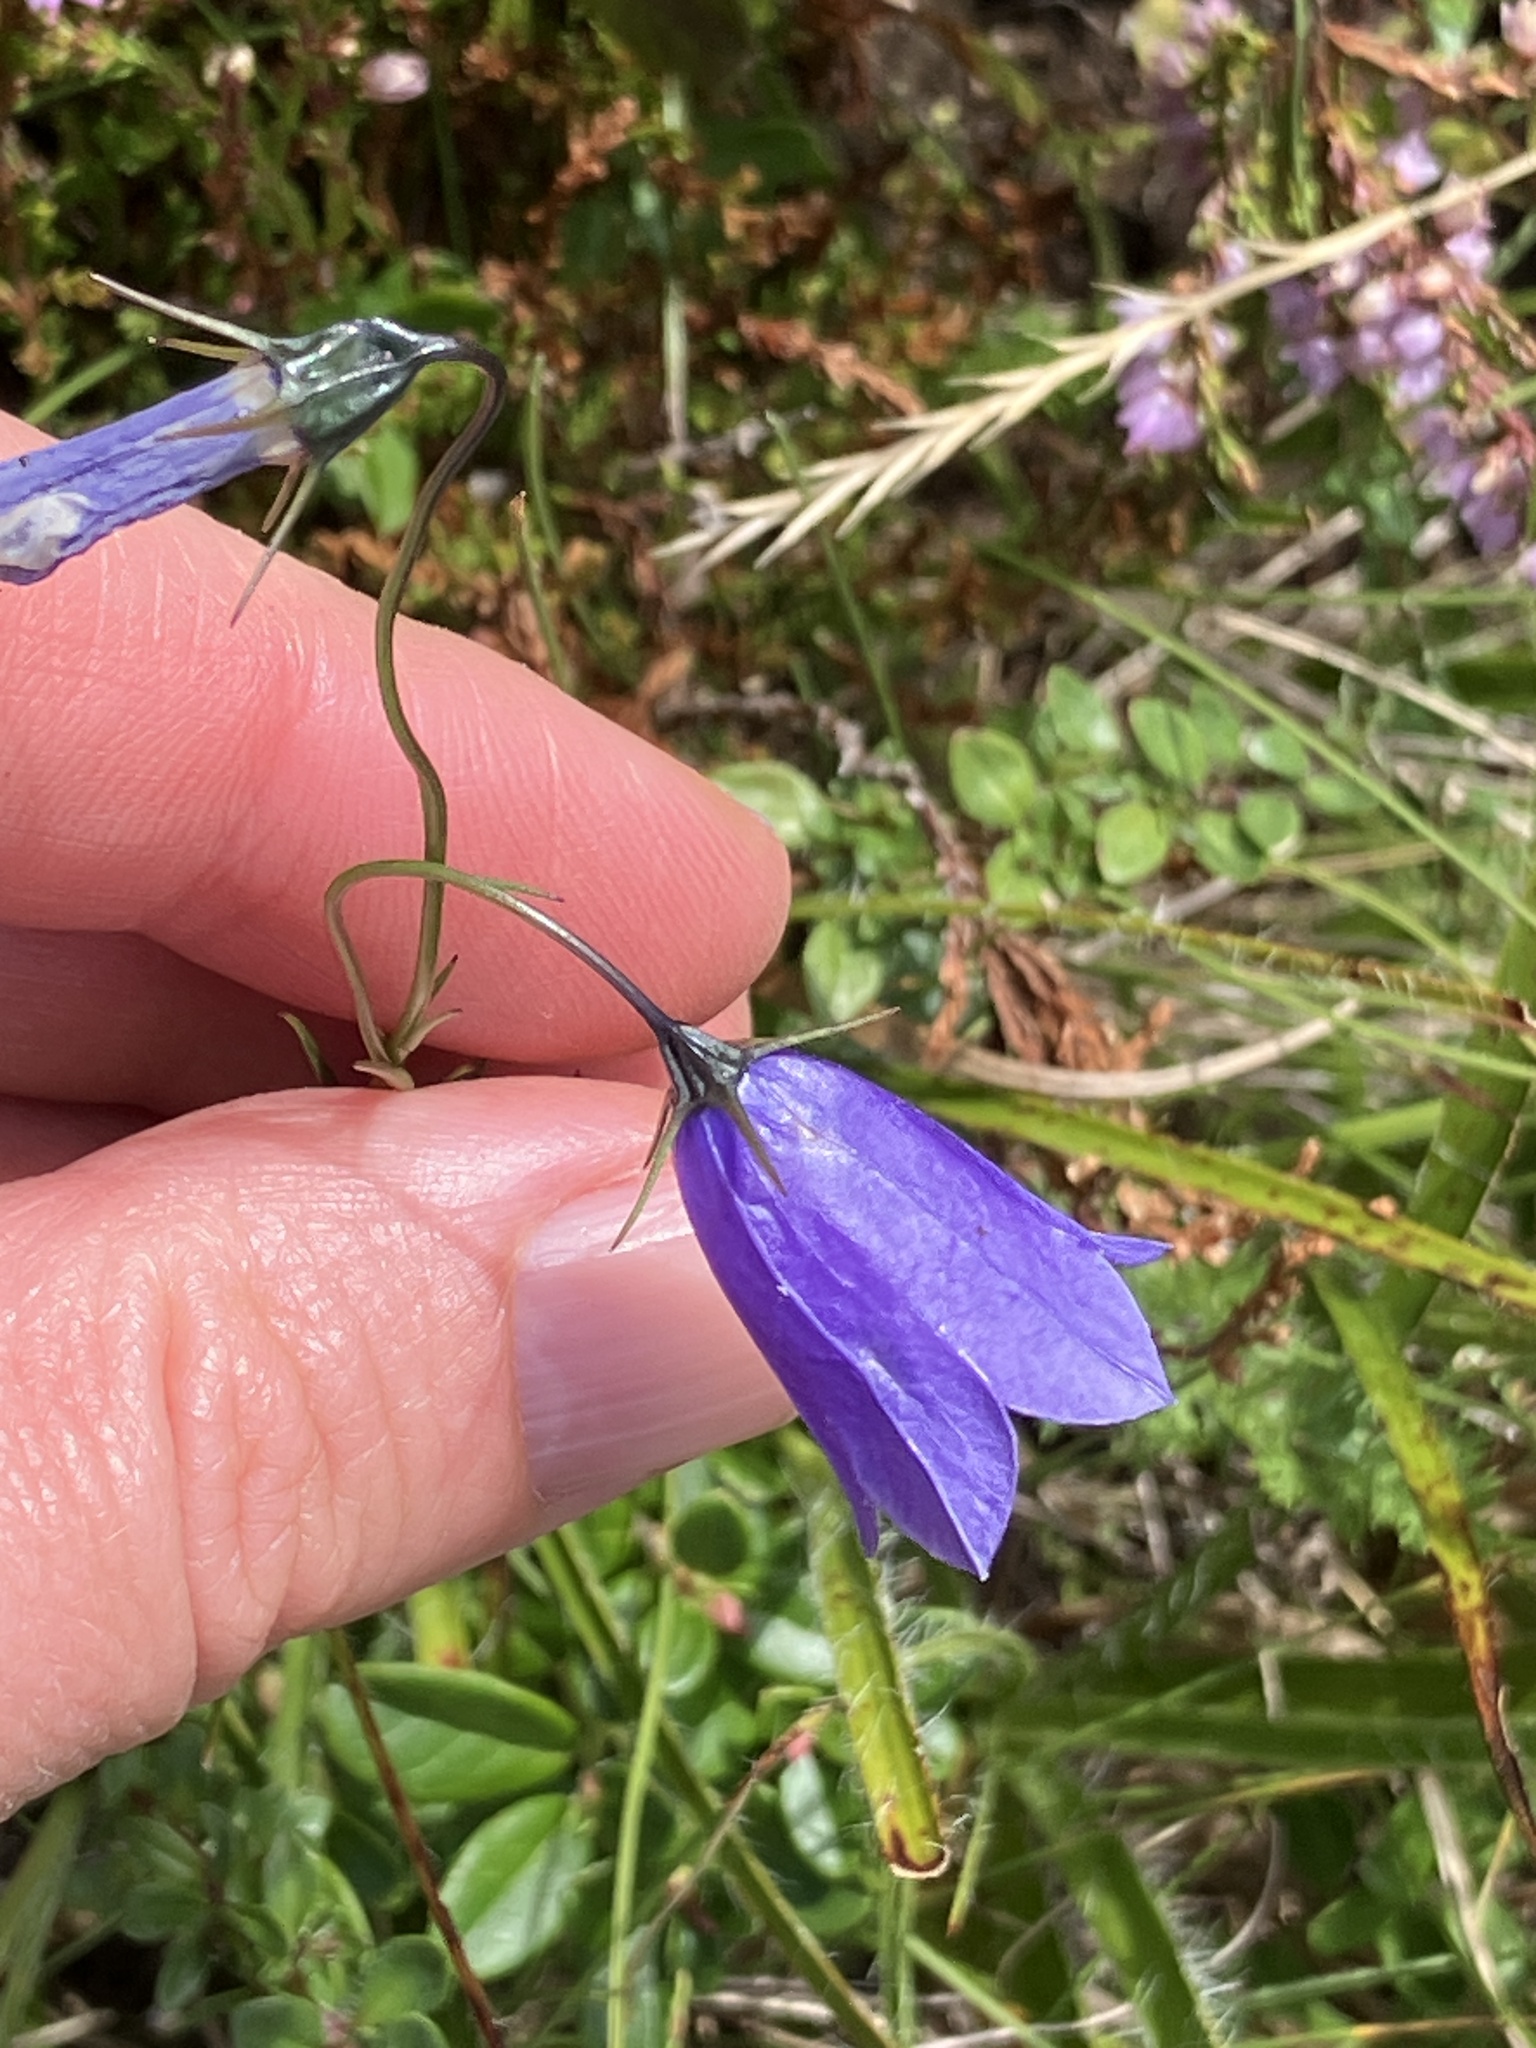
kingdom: Plantae
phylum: Tracheophyta
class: Magnoliopsida
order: Asterales
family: Campanulaceae
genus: Campanula
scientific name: Campanula scheuchzeri
